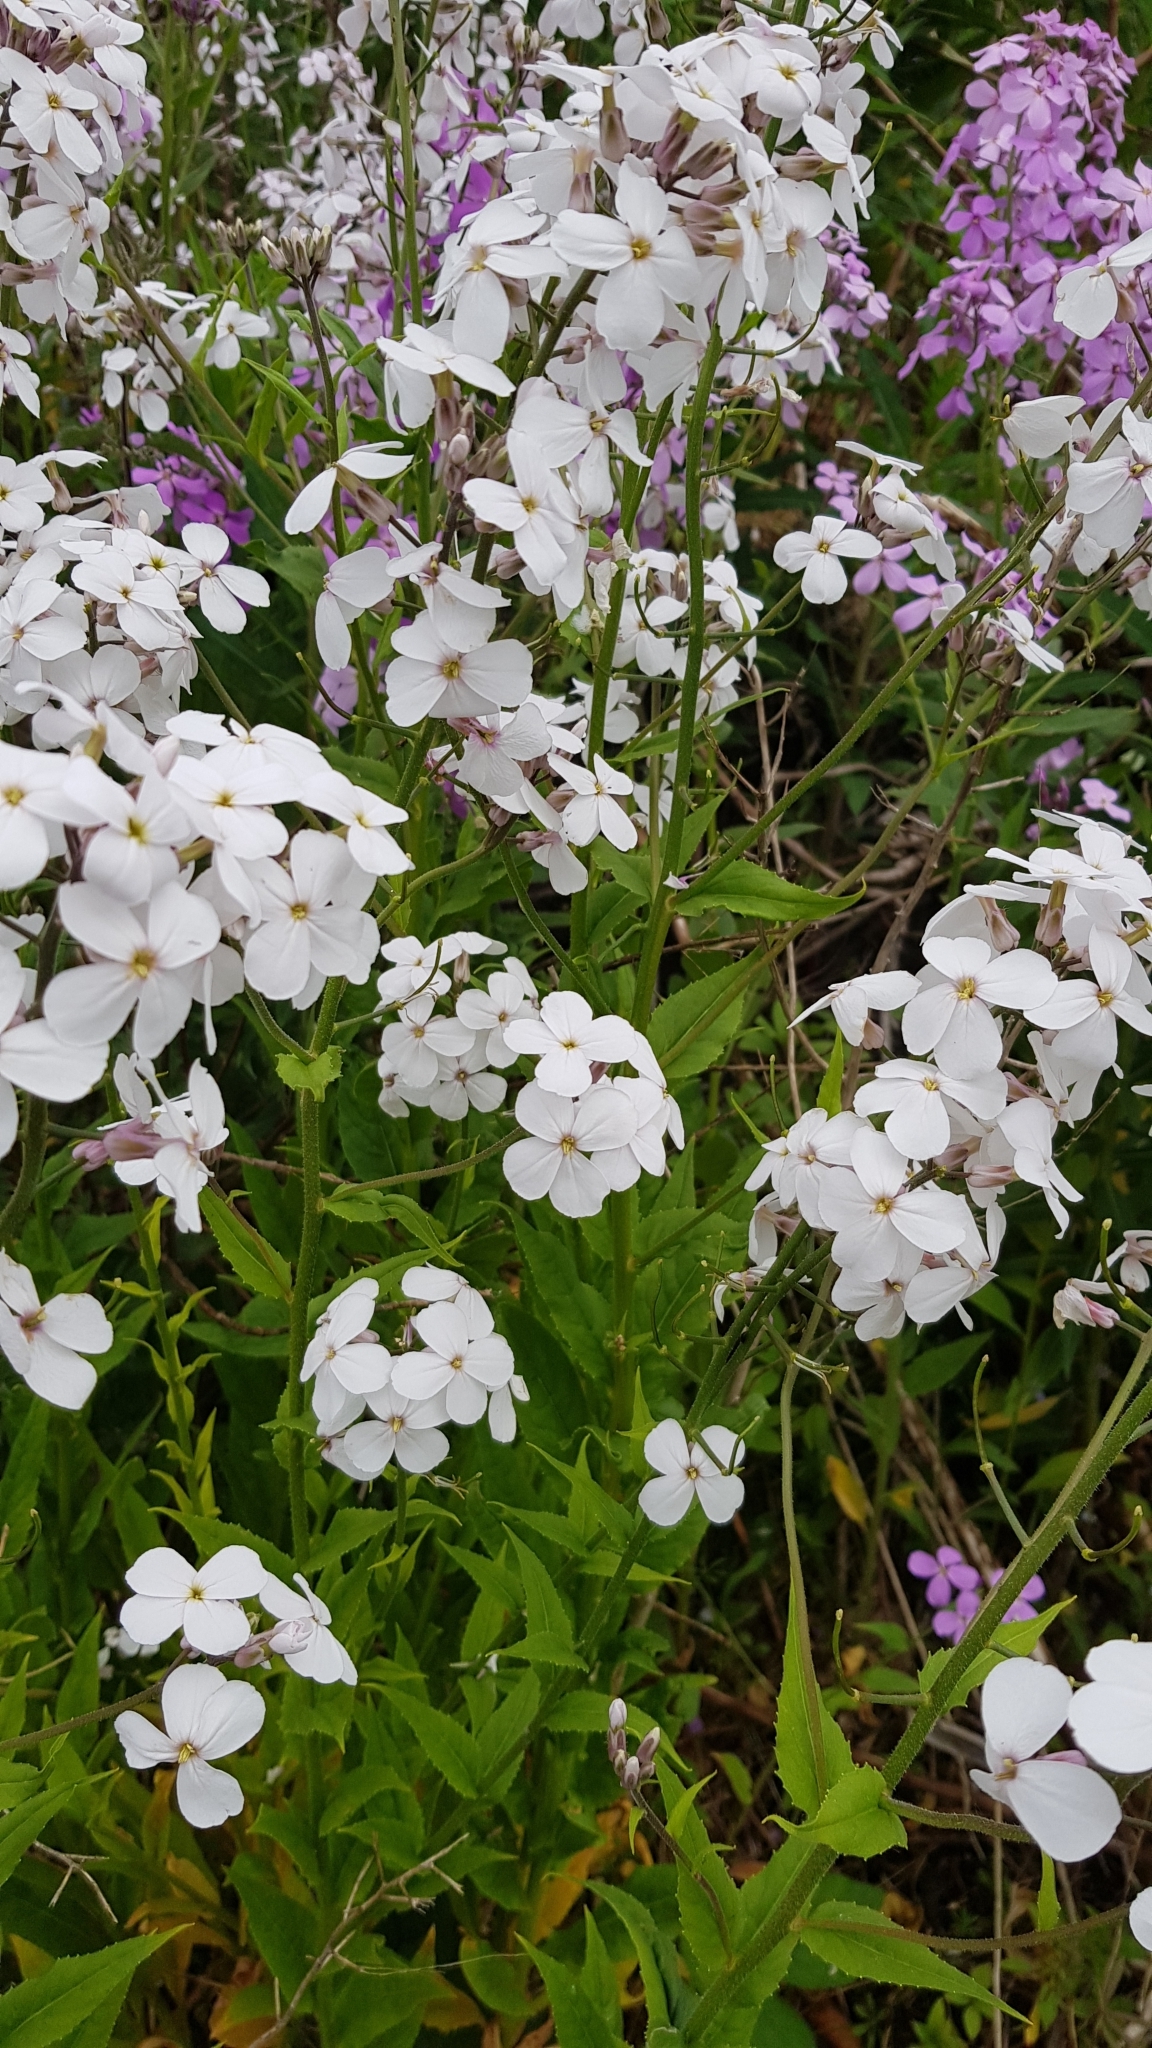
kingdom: Plantae
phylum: Tracheophyta
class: Magnoliopsida
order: Brassicales
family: Brassicaceae
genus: Hesperis
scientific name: Hesperis matronalis
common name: Dame's-violet
